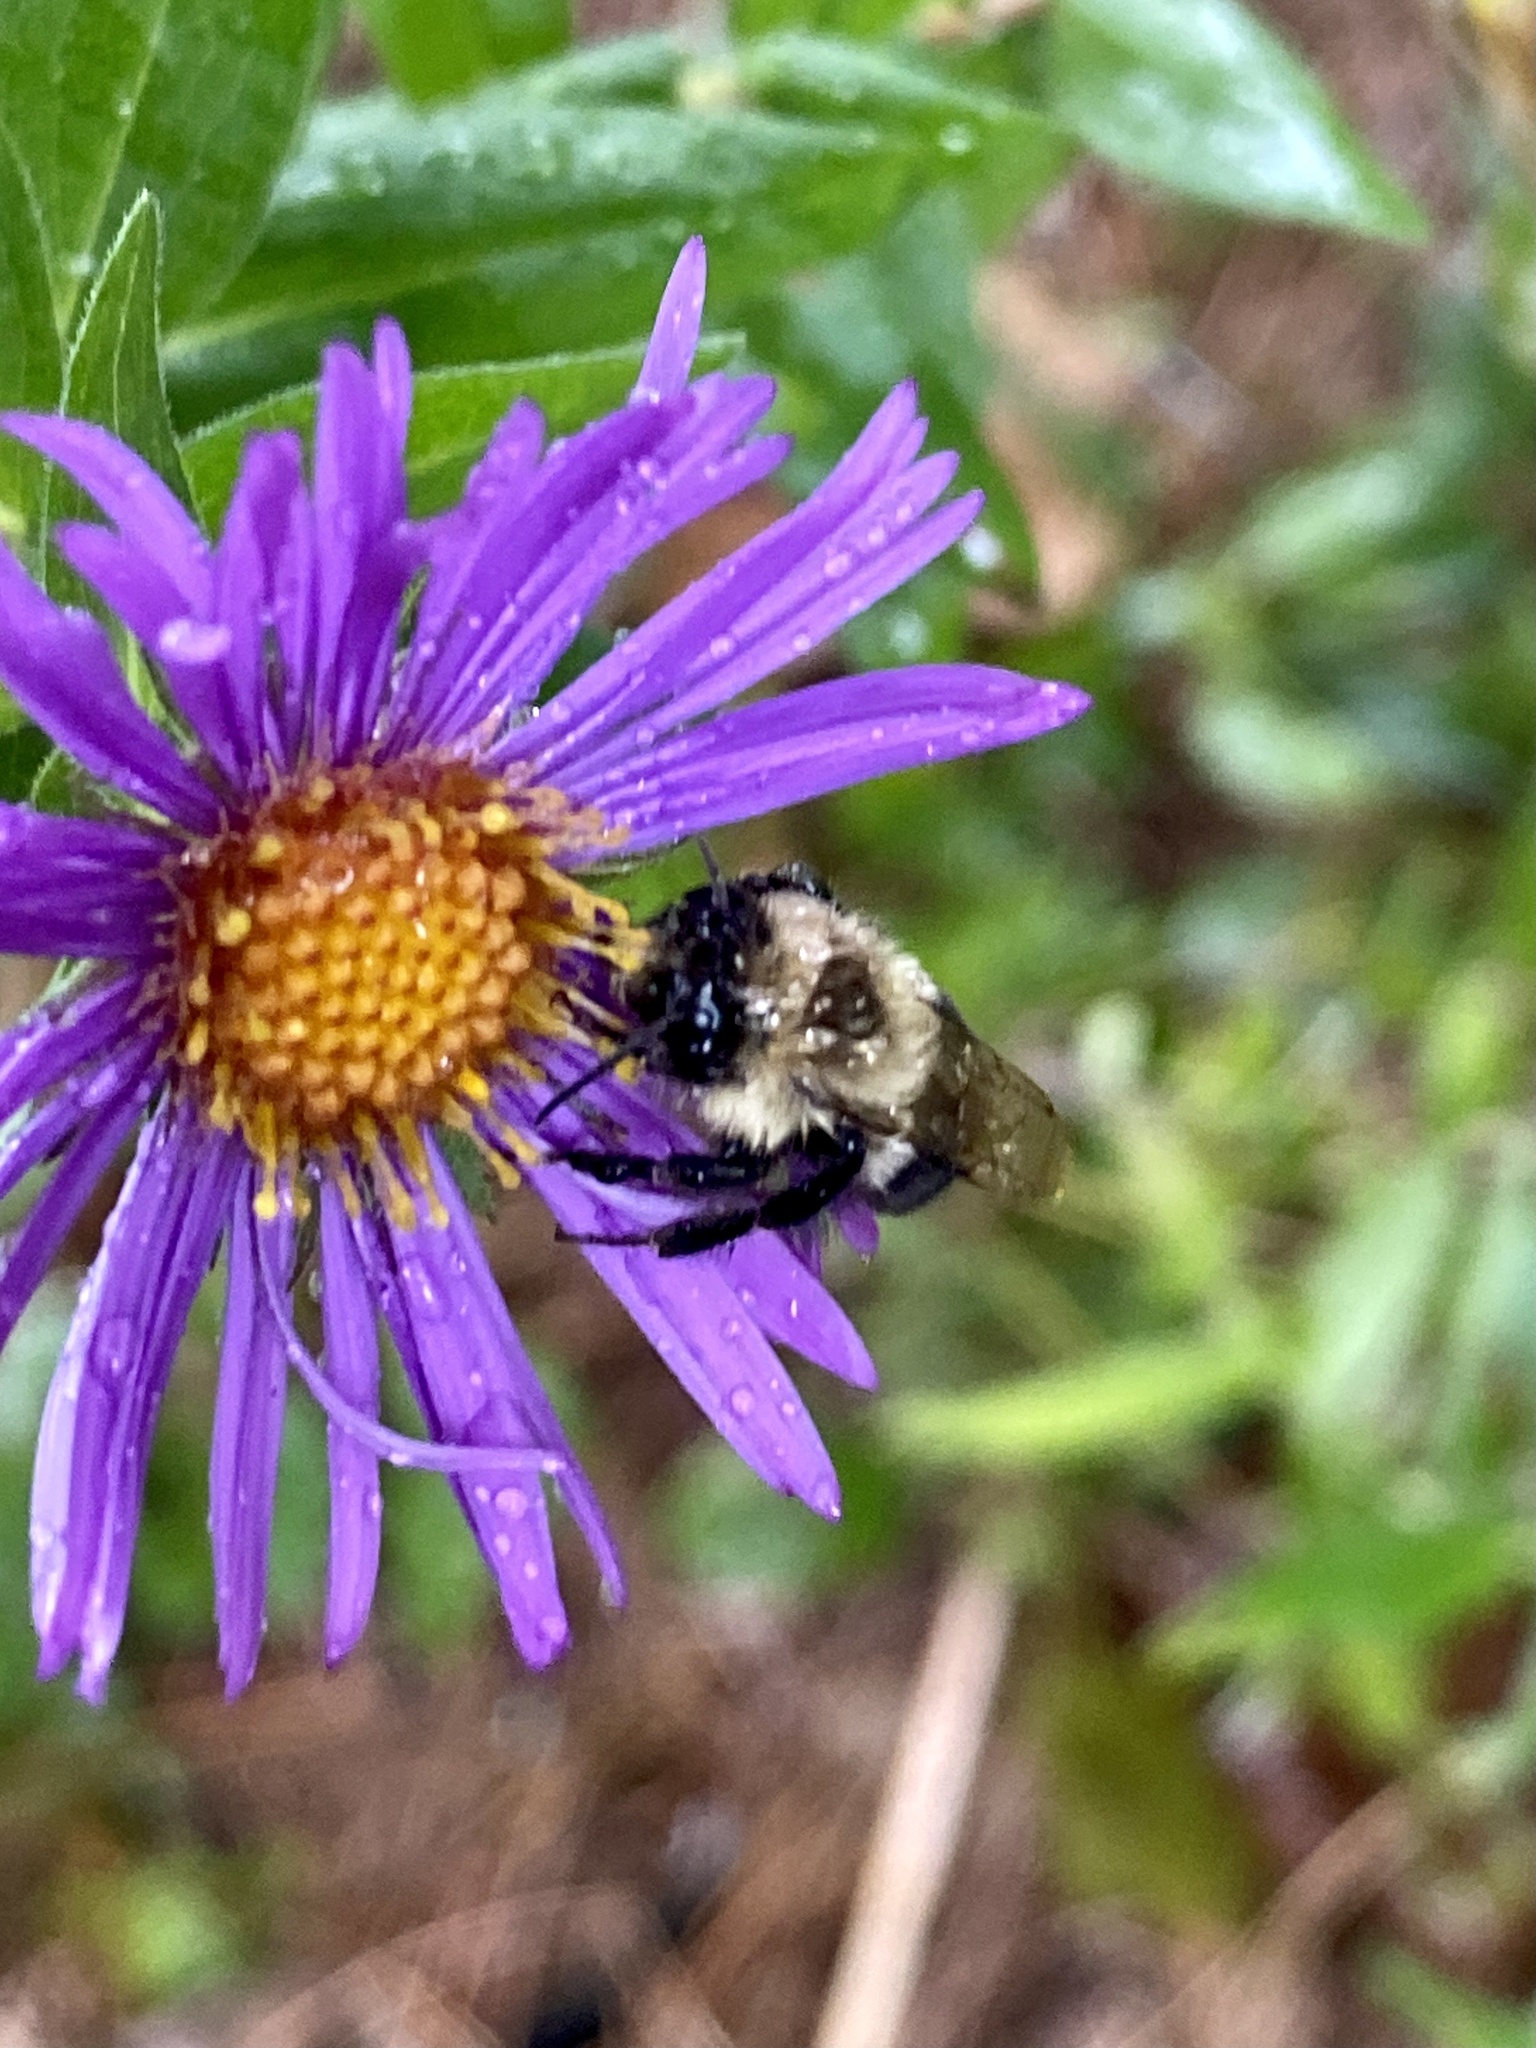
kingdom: Animalia
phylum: Arthropoda
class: Insecta
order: Hymenoptera
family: Apidae
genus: Bombus
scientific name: Bombus impatiens
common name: Common eastern bumble bee
